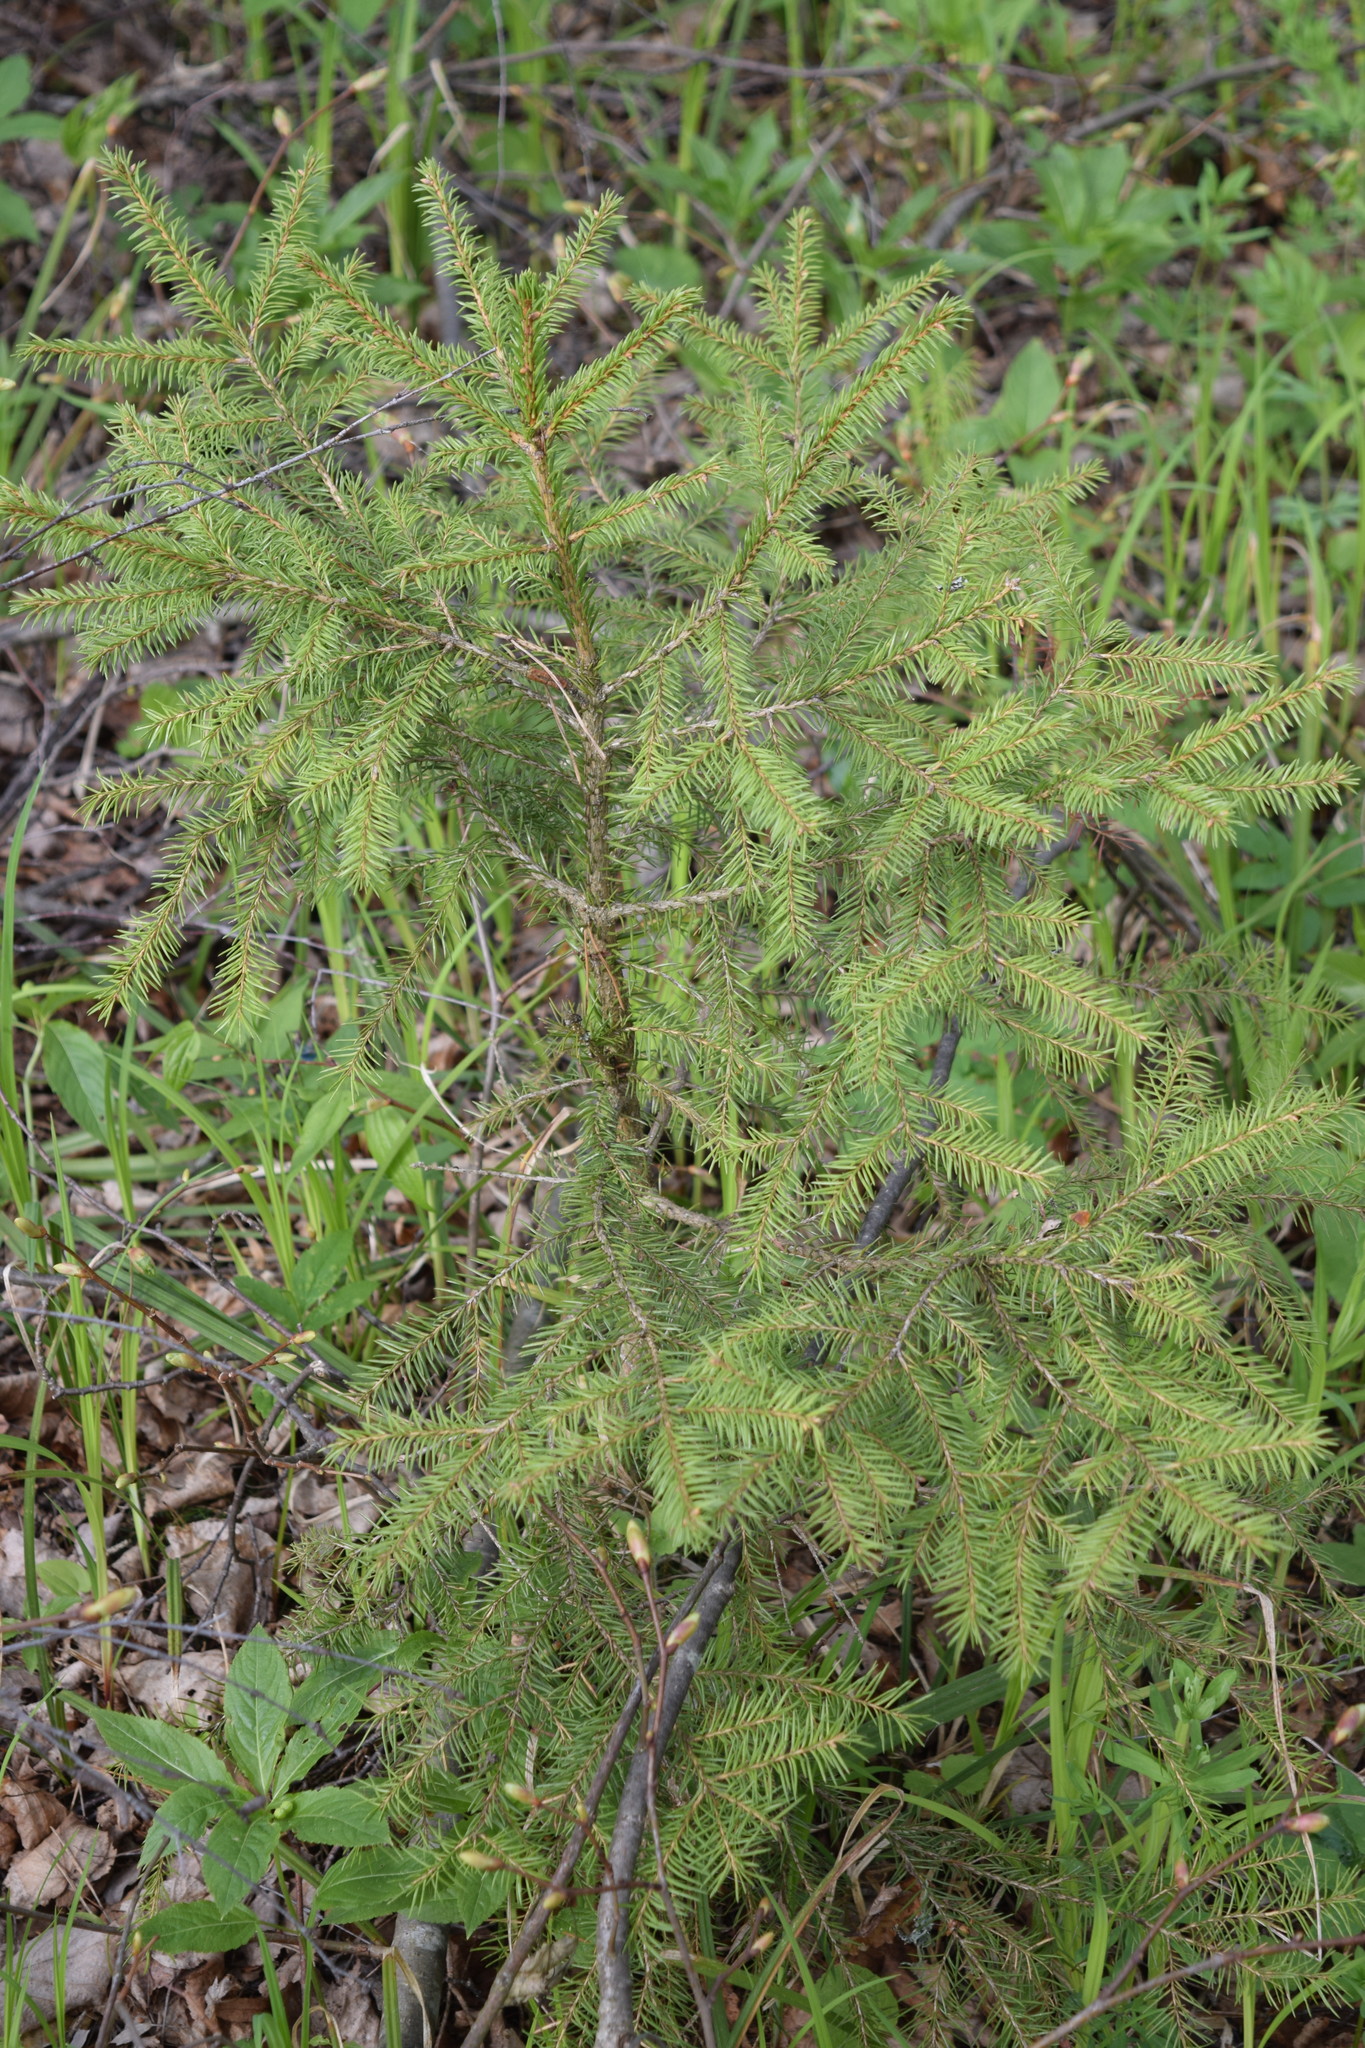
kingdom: Plantae
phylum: Tracheophyta
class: Pinopsida
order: Pinales
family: Pinaceae
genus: Picea
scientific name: Picea abies
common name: Norway spruce
